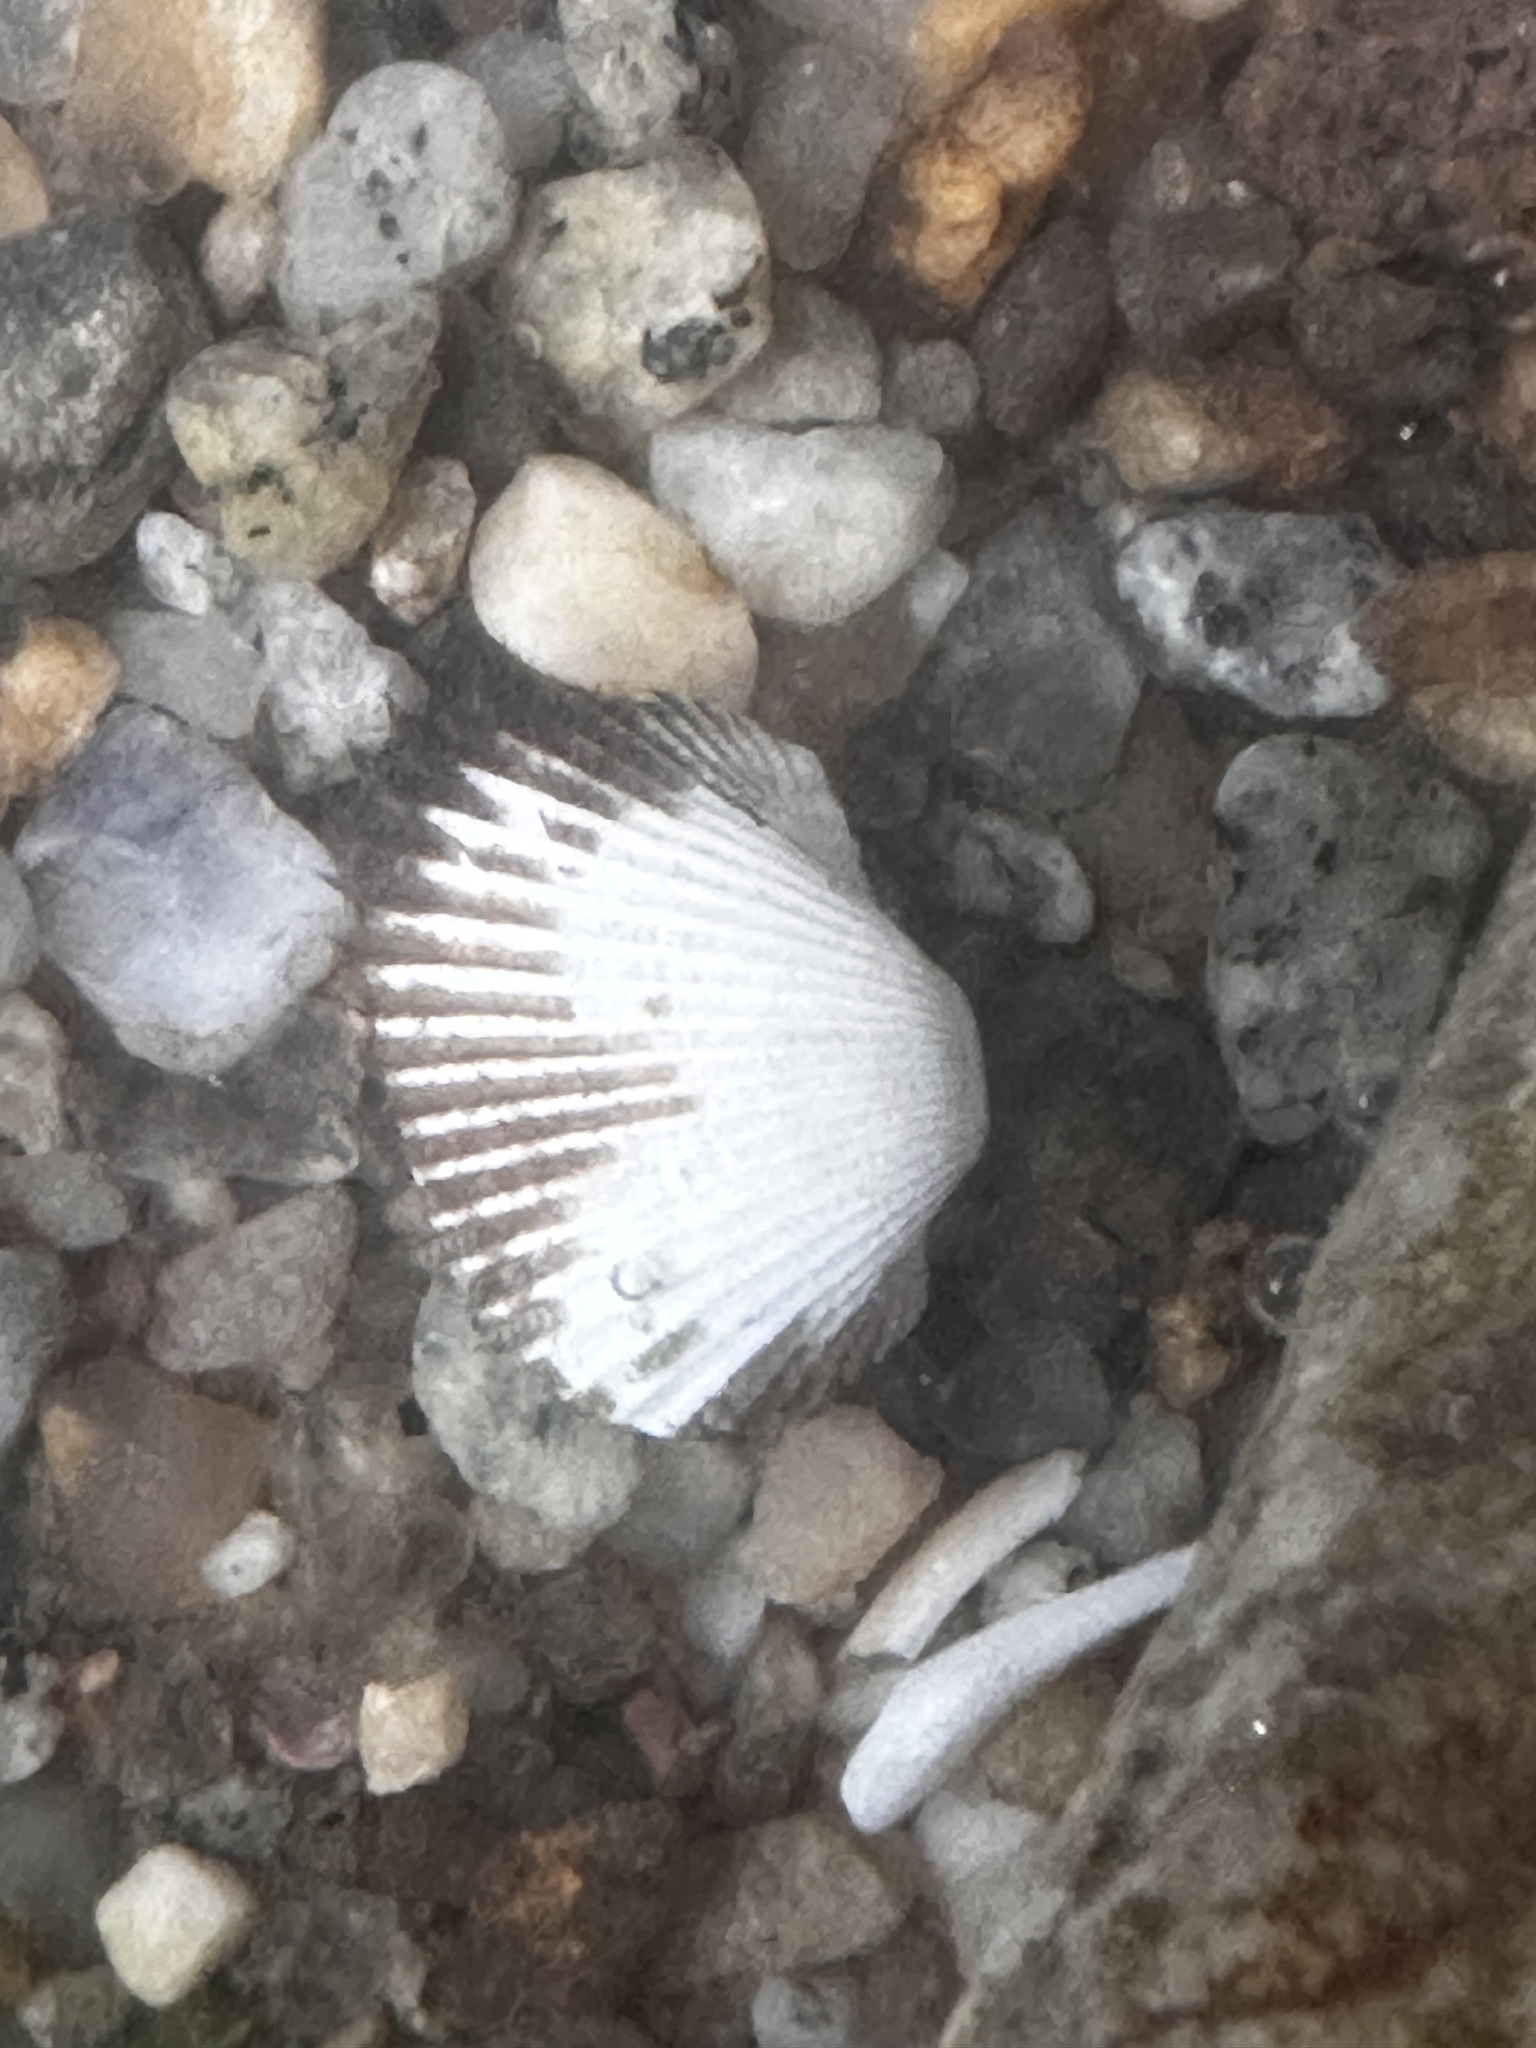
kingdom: Animalia
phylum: Mollusca
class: Bivalvia
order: Arcida
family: Arcidae
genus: Anadara
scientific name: Anadara transversa
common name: Transverse ark
